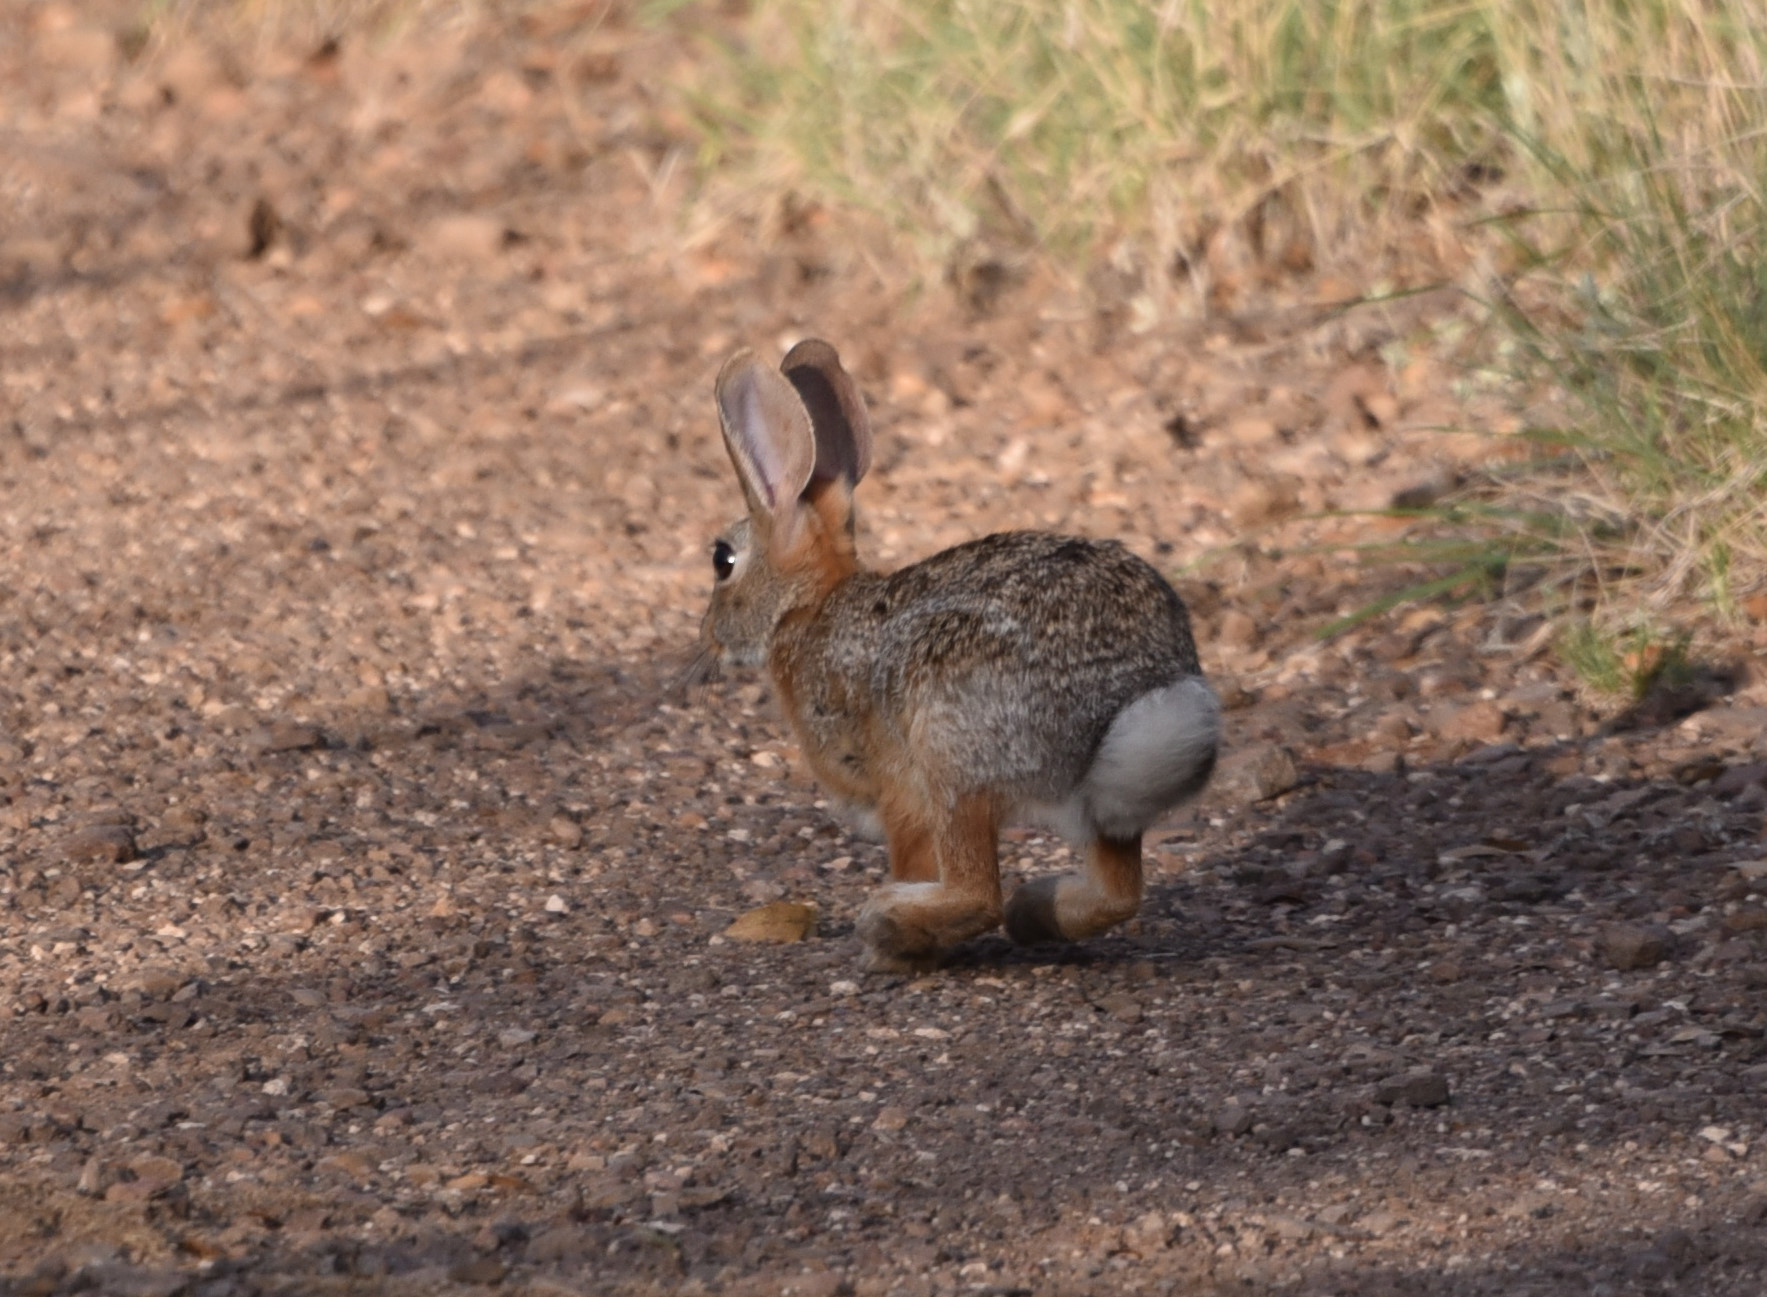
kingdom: Animalia
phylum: Chordata
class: Mammalia
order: Lagomorpha
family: Leporidae
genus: Sylvilagus
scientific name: Sylvilagus audubonii
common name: Desert cottontail
